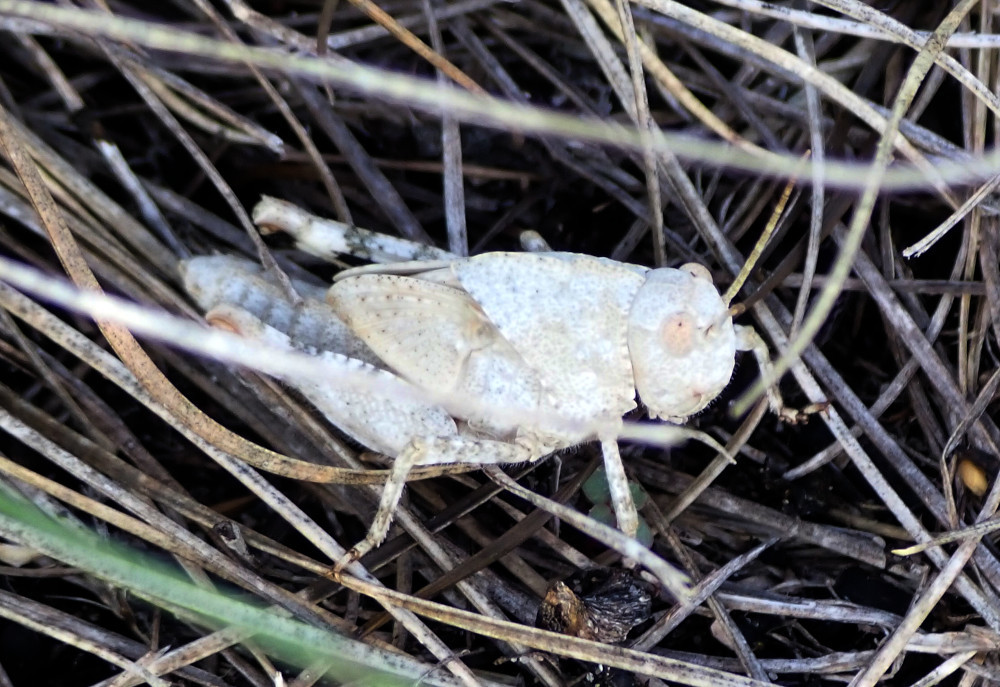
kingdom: Animalia
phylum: Arthropoda
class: Insecta
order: Orthoptera
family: Acrididae
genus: Dissosteira
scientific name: Dissosteira carolina
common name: Carolina grasshopper
